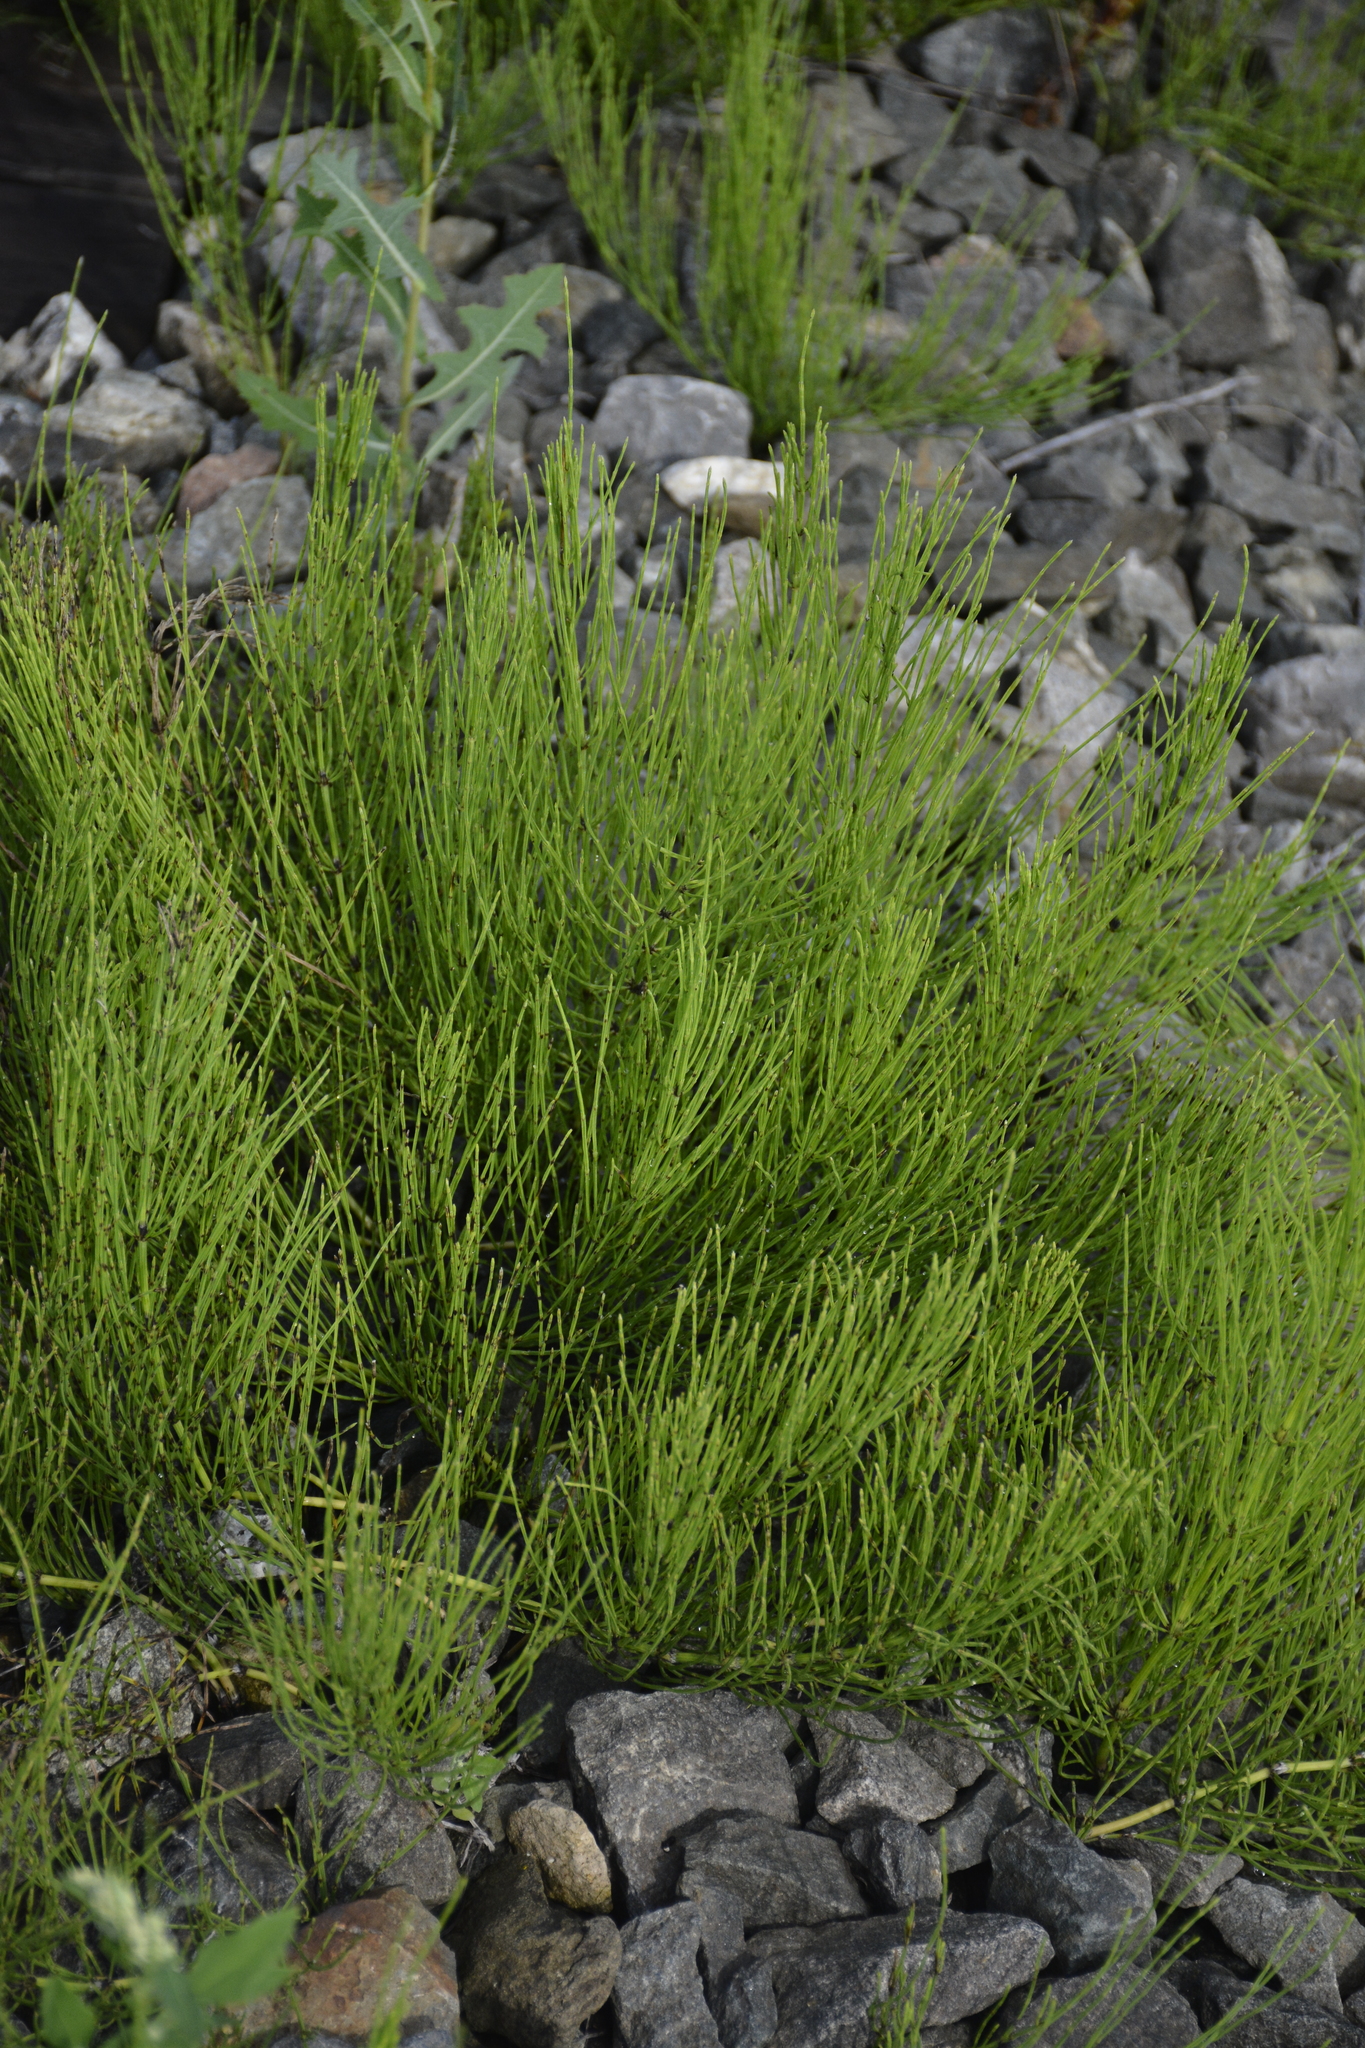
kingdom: Plantae
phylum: Tracheophyta
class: Polypodiopsida
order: Equisetales
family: Equisetaceae
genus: Equisetum
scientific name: Equisetum arvense
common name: Field horsetail
